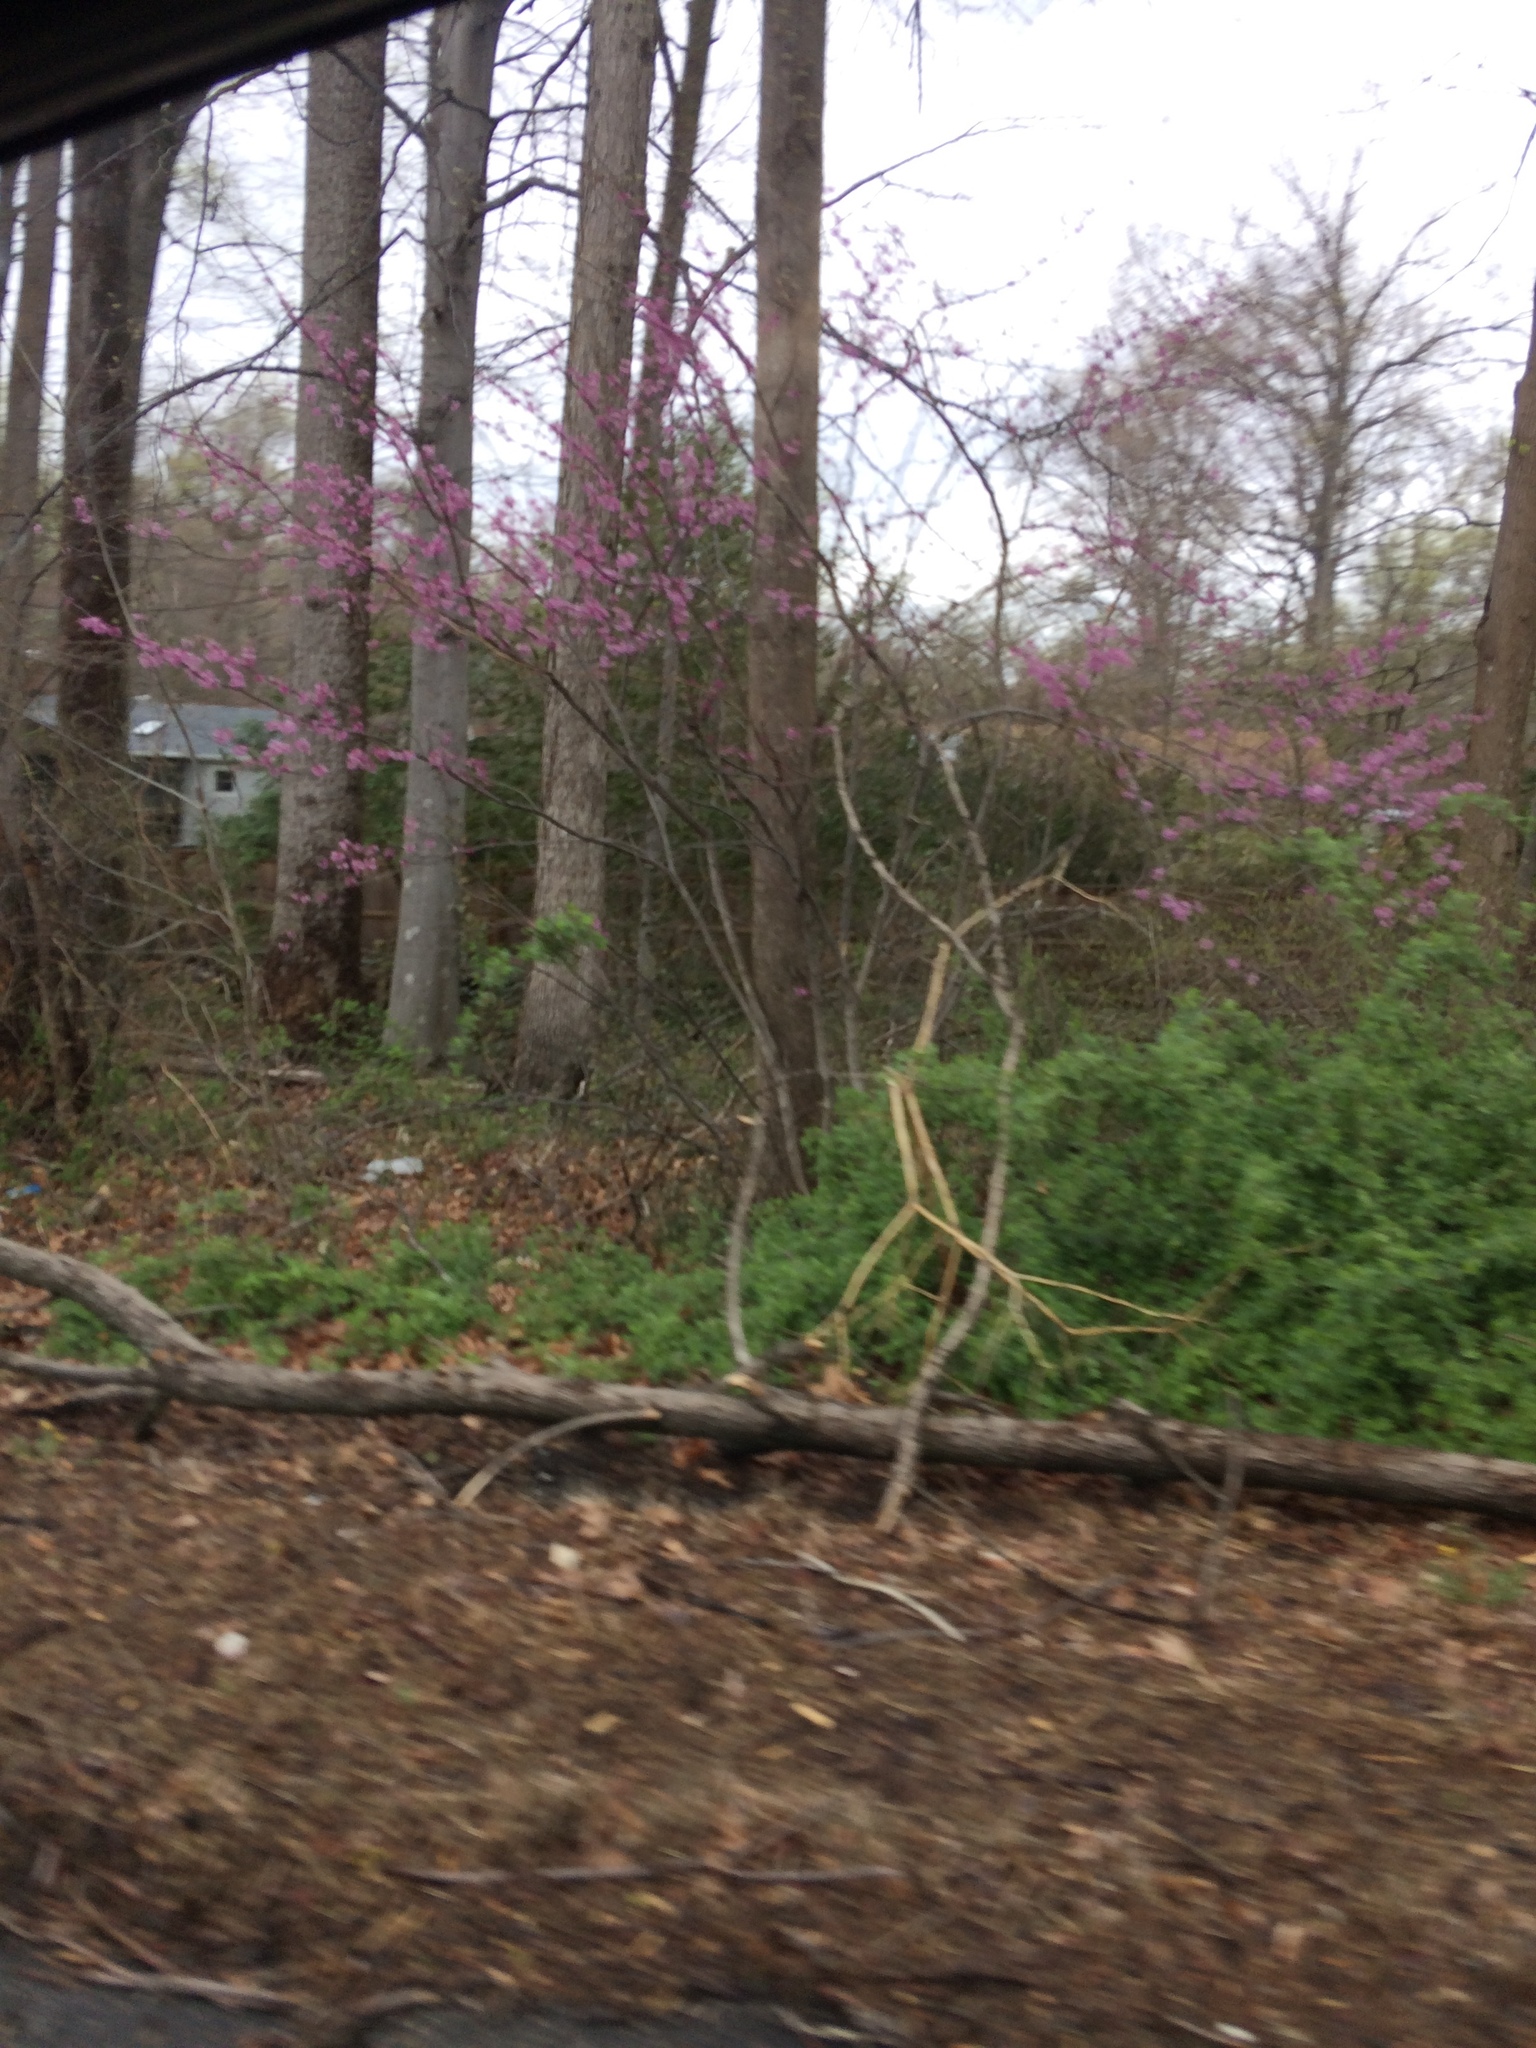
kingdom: Plantae
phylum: Tracheophyta
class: Magnoliopsida
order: Fabales
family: Fabaceae
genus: Cercis
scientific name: Cercis canadensis
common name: Eastern redbud
